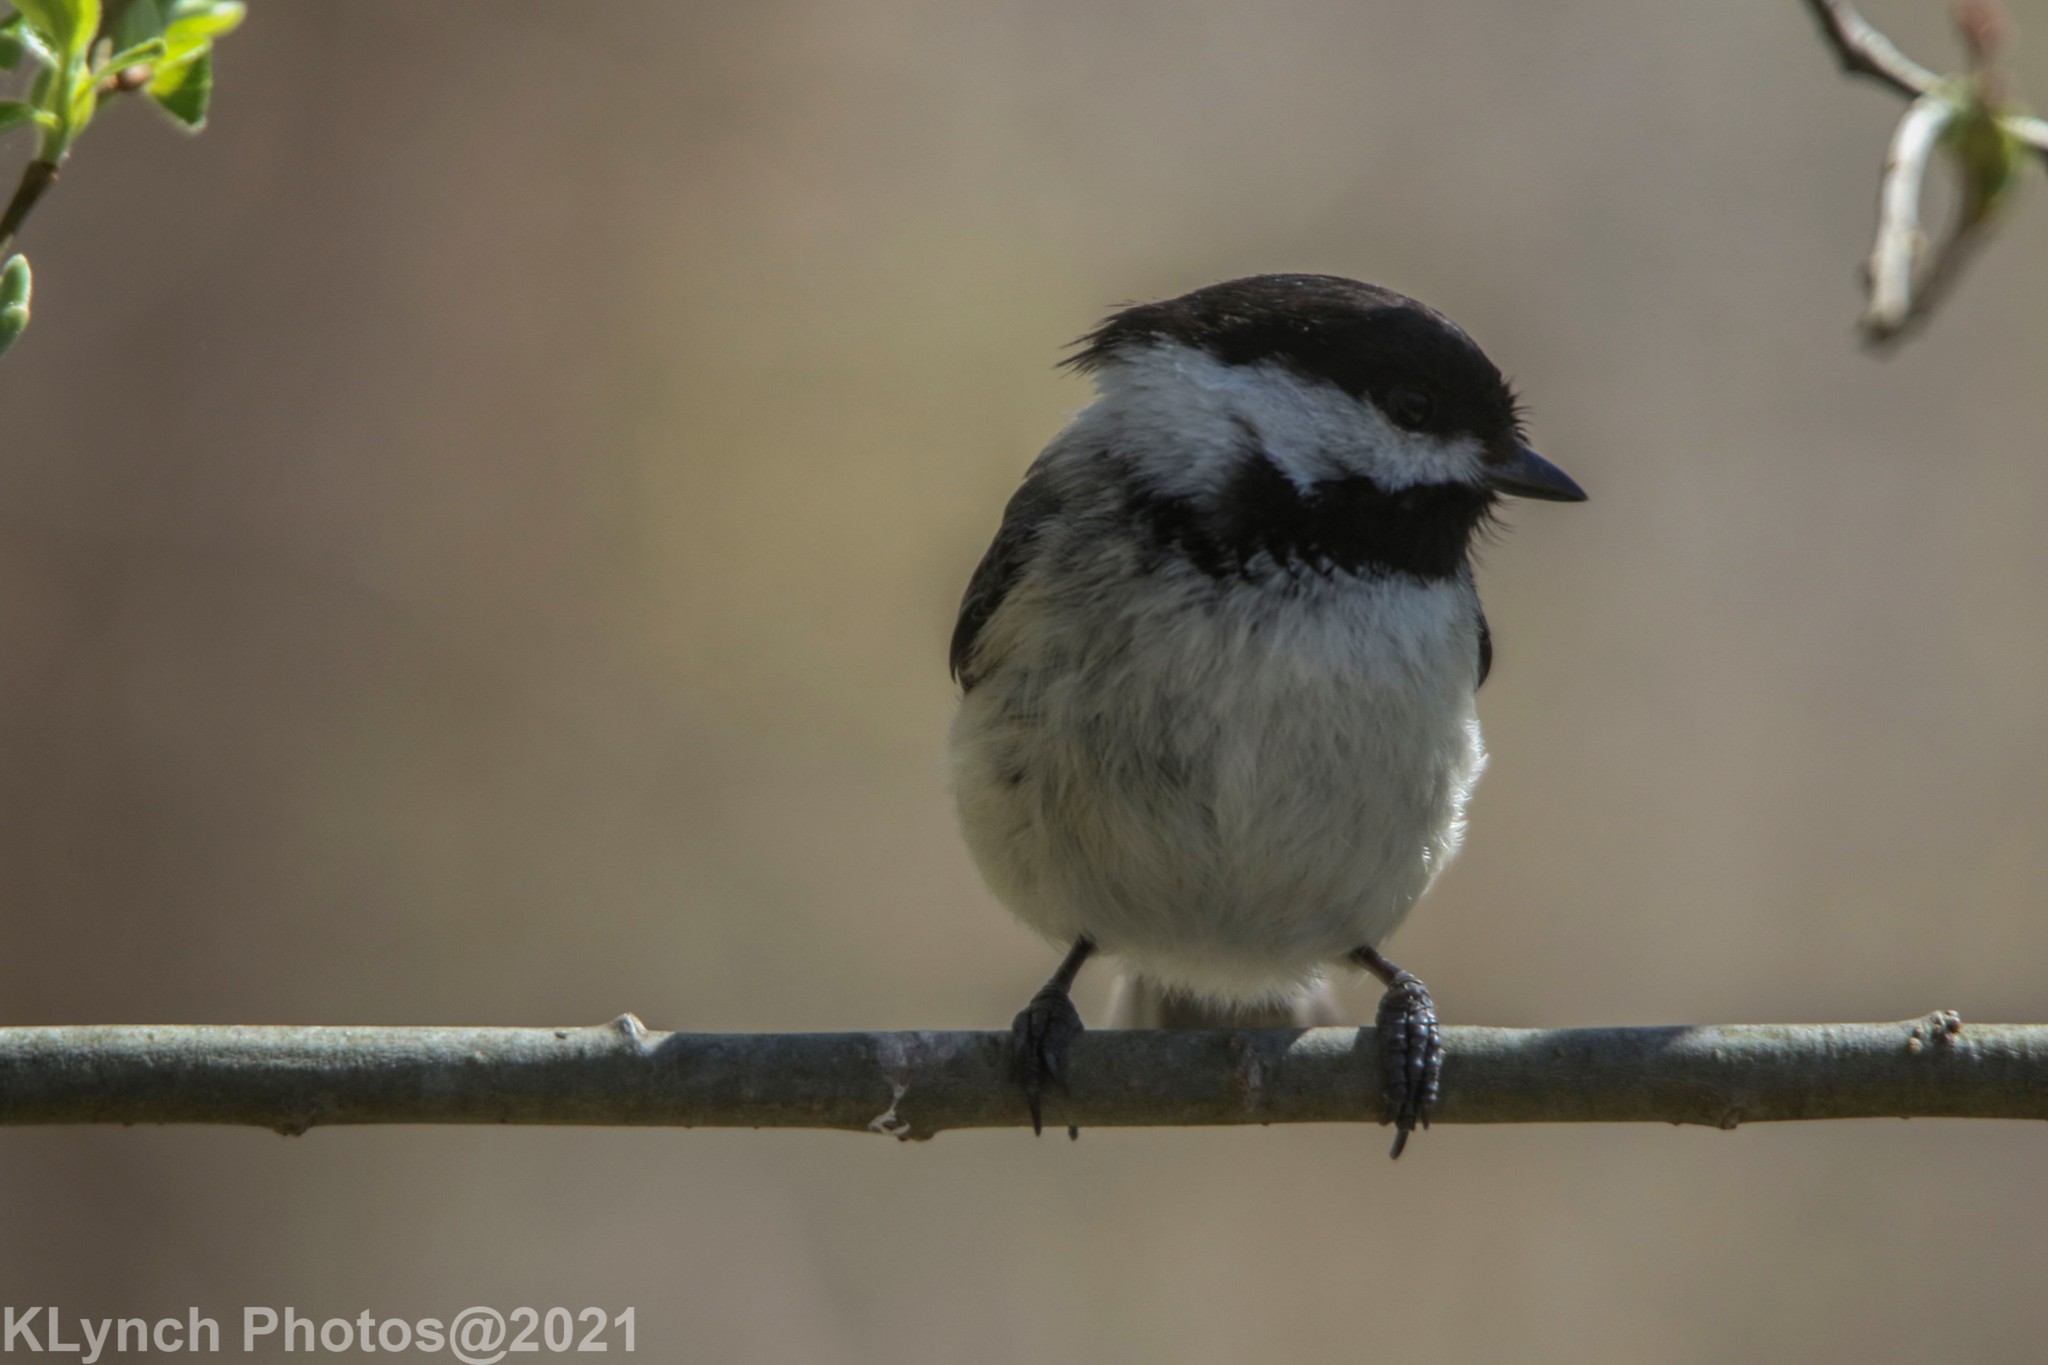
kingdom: Animalia
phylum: Chordata
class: Aves
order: Passeriformes
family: Paridae
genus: Poecile
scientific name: Poecile atricapillus
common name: Black-capped chickadee
